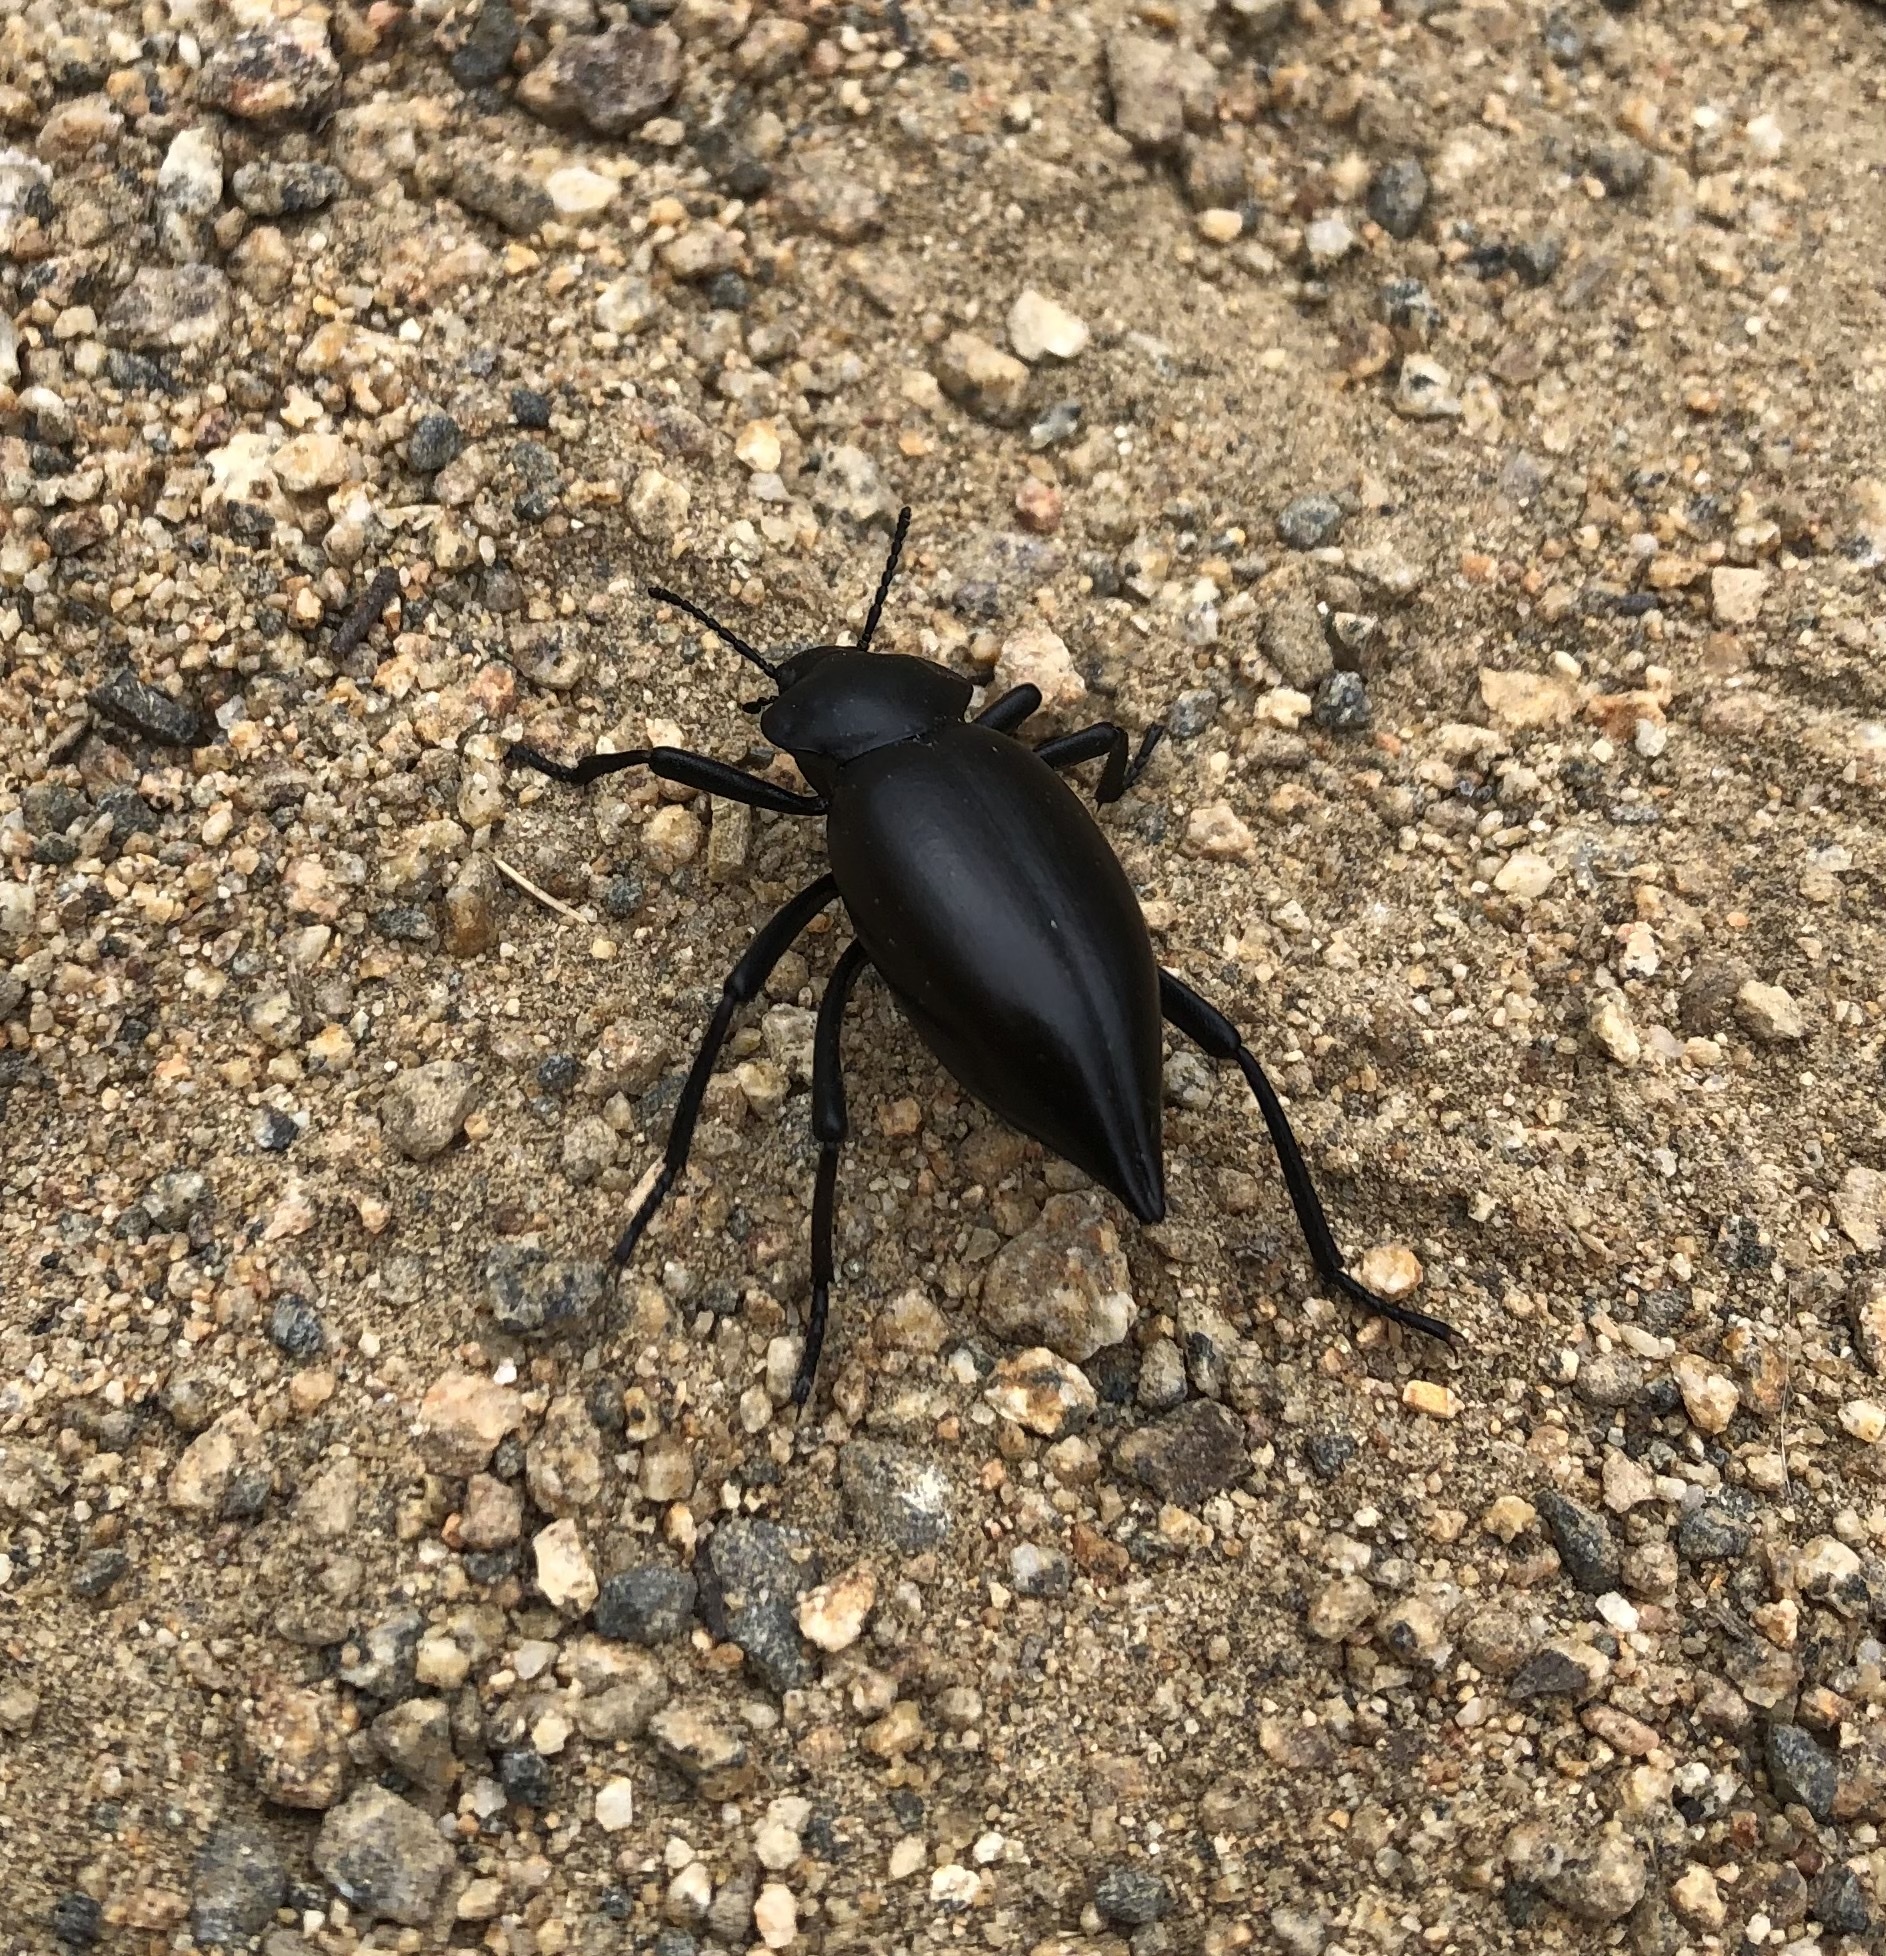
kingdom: Animalia
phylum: Arthropoda
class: Insecta
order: Coleoptera
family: Tenebrionidae
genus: Eleodes
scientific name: Eleodes acuticauda
